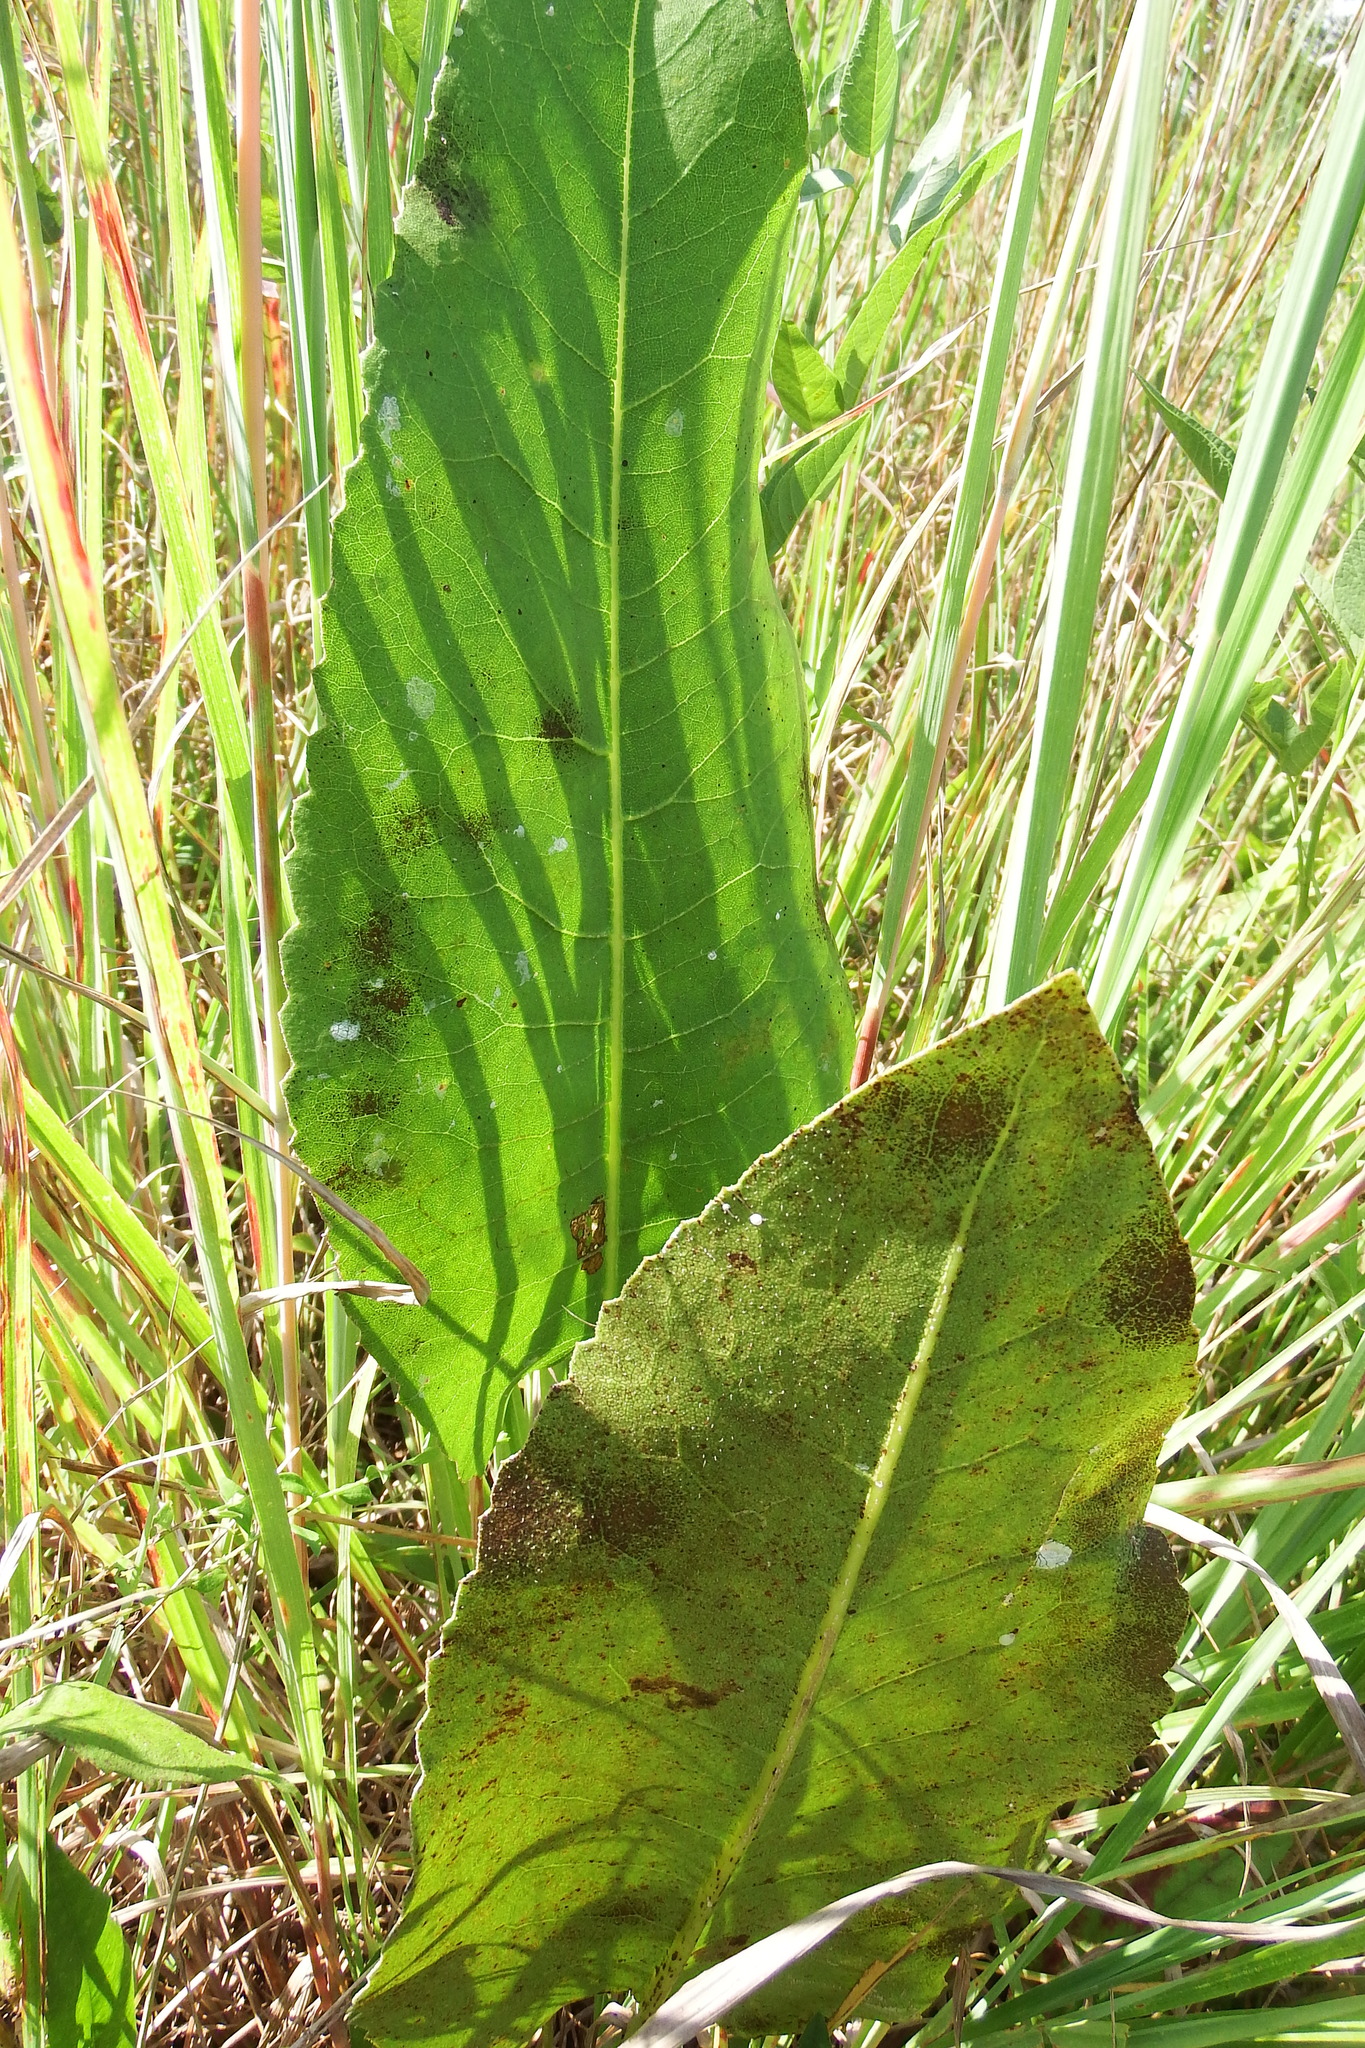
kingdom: Plantae
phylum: Tracheophyta
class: Magnoliopsida
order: Asterales
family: Asteraceae
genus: Silphium
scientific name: Silphium terebinthinaceum
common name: Basal-leaf rosinweed
